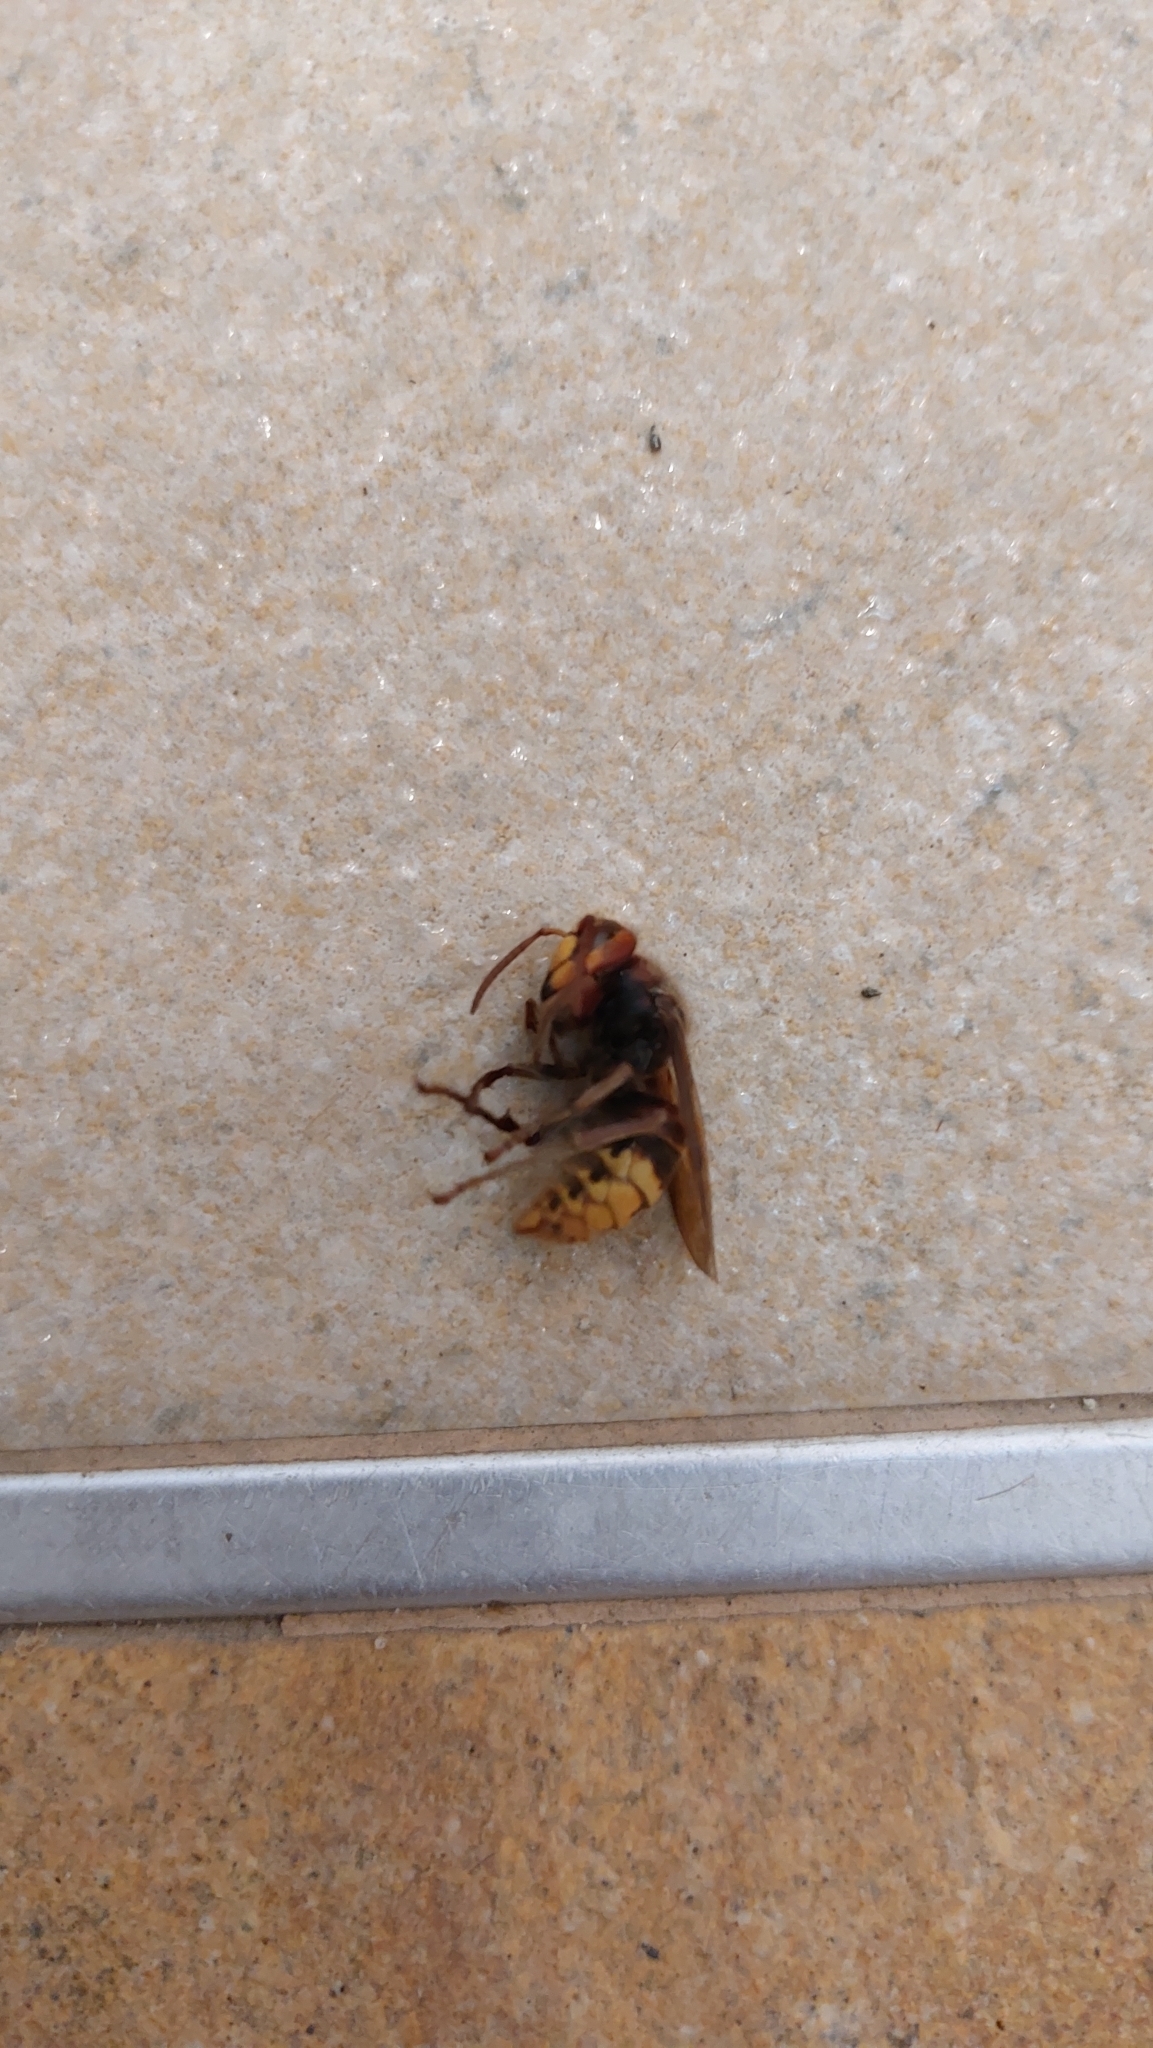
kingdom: Animalia
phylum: Arthropoda
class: Insecta
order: Hymenoptera
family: Vespidae
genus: Vespa
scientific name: Vespa crabro
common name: Hornet
